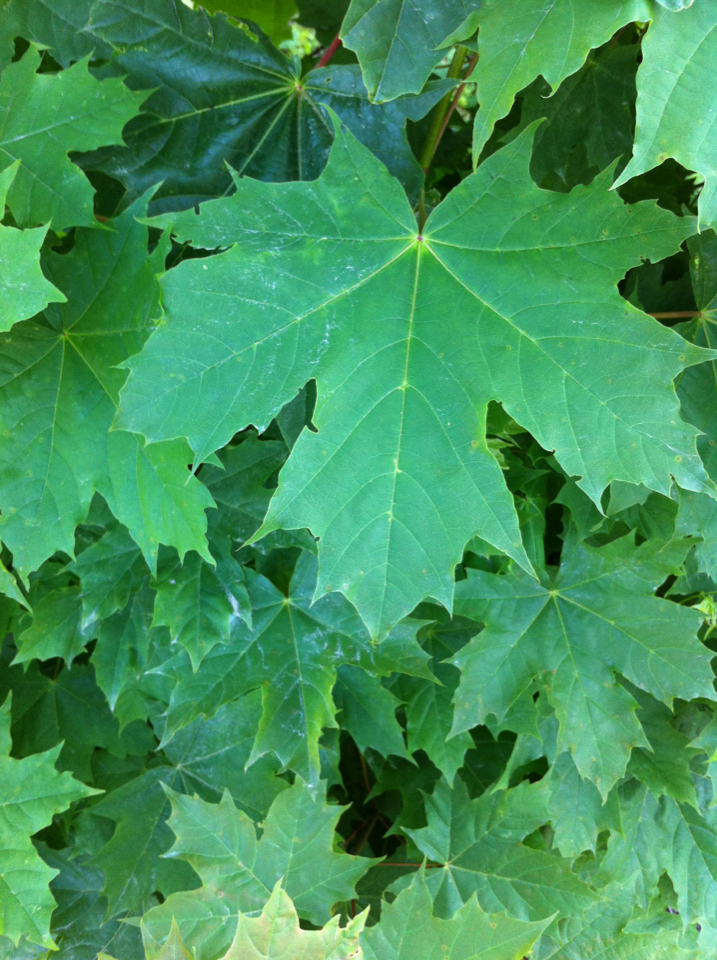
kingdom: Plantae
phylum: Tracheophyta
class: Magnoliopsida
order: Sapindales
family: Sapindaceae
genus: Acer
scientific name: Acer platanoides
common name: Norway maple
